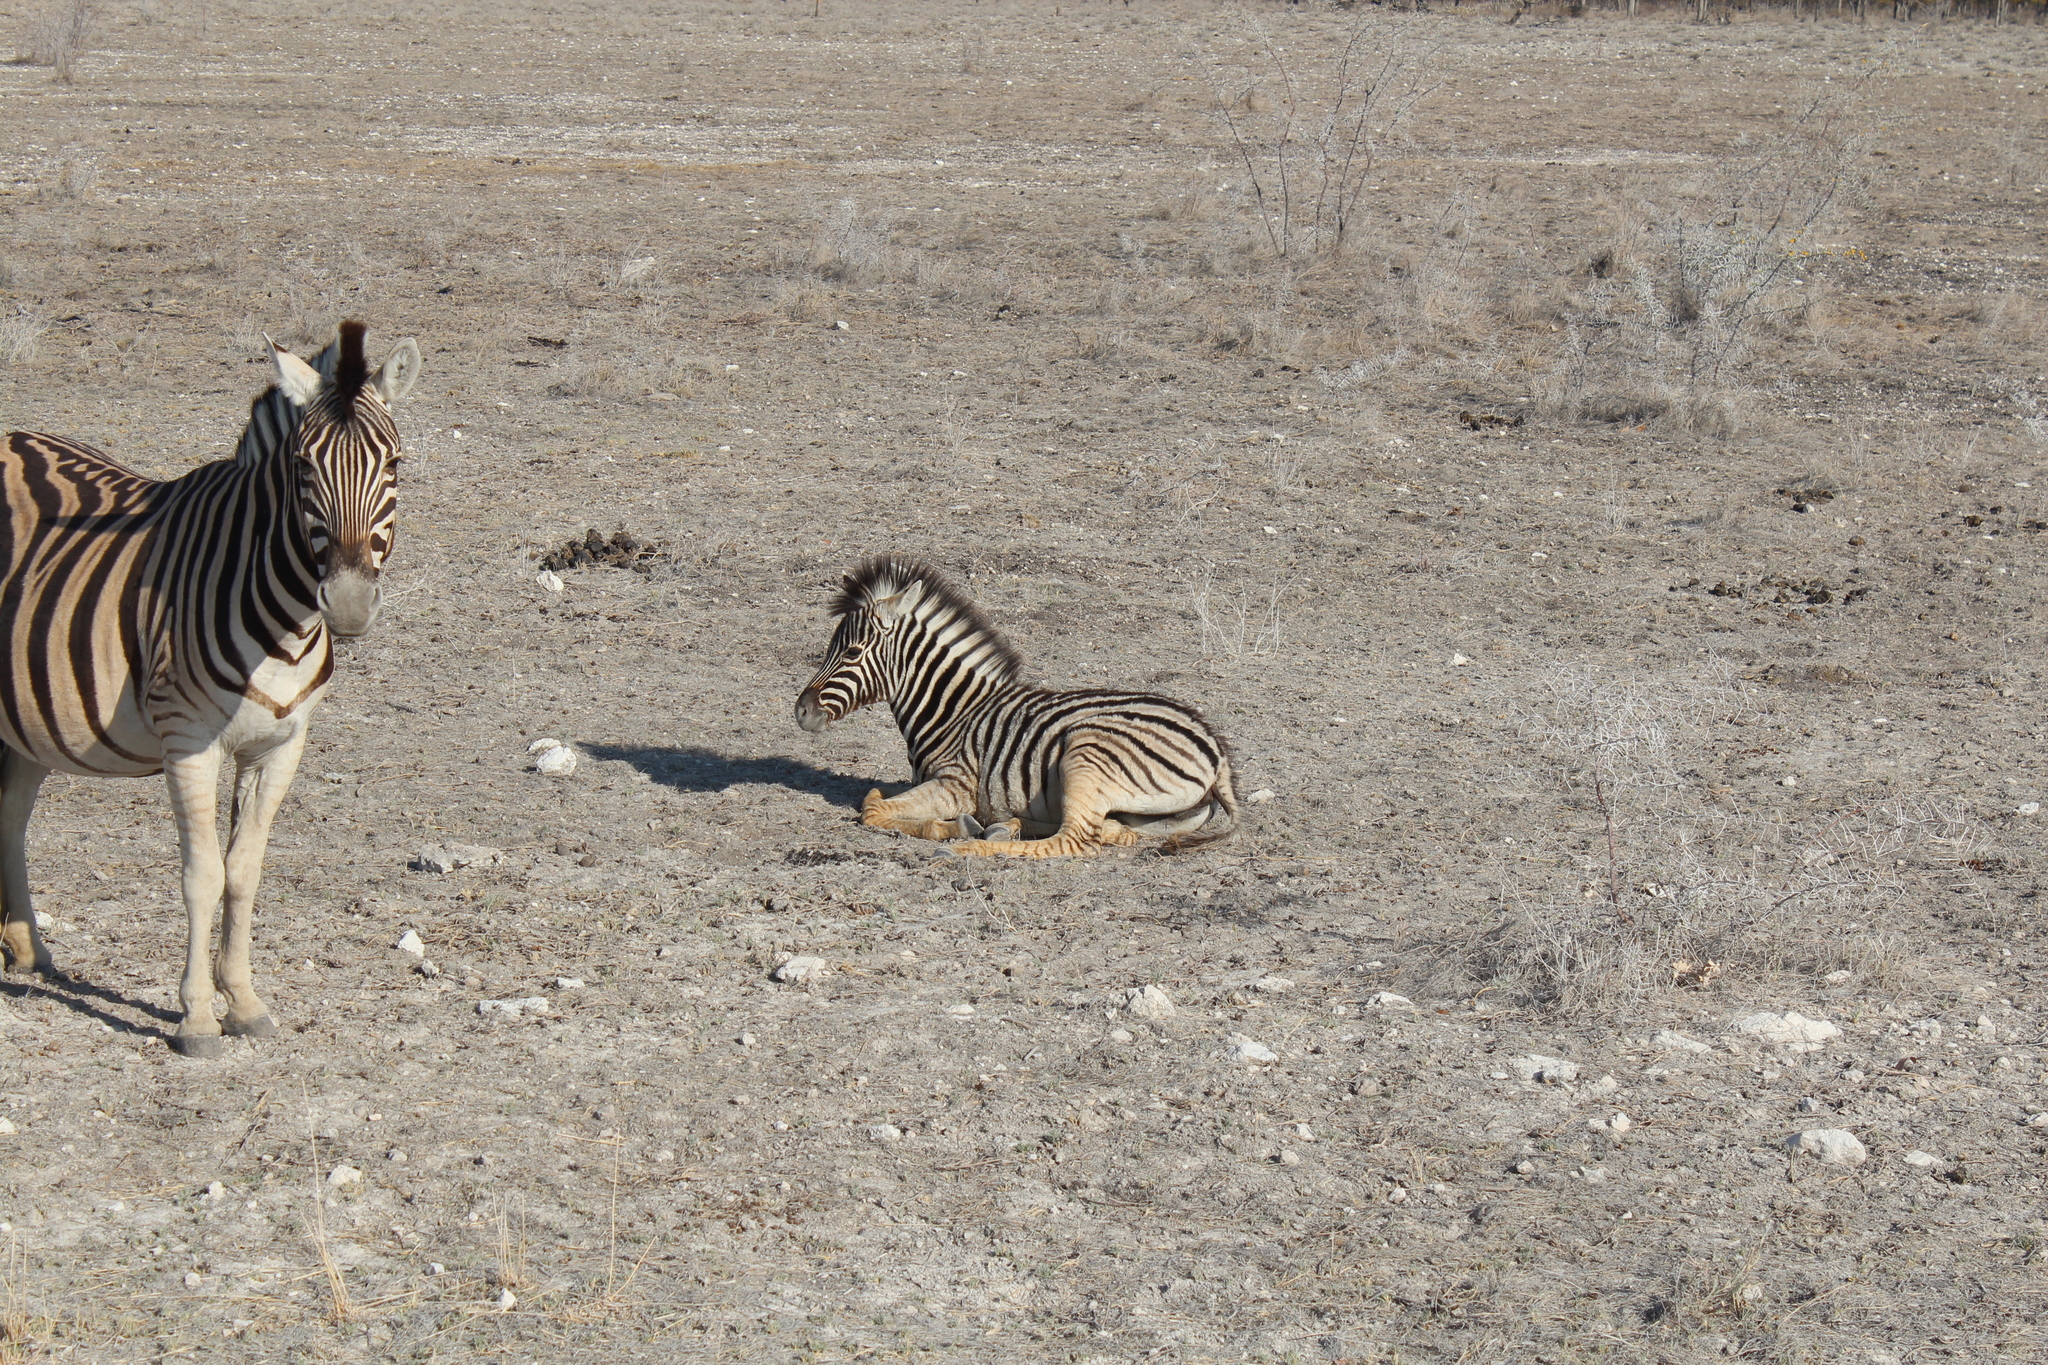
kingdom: Animalia
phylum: Chordata
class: Mammalia
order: Perissodactyla
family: Equidae
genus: Equus
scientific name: Equus quagga
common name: Plains zebra
